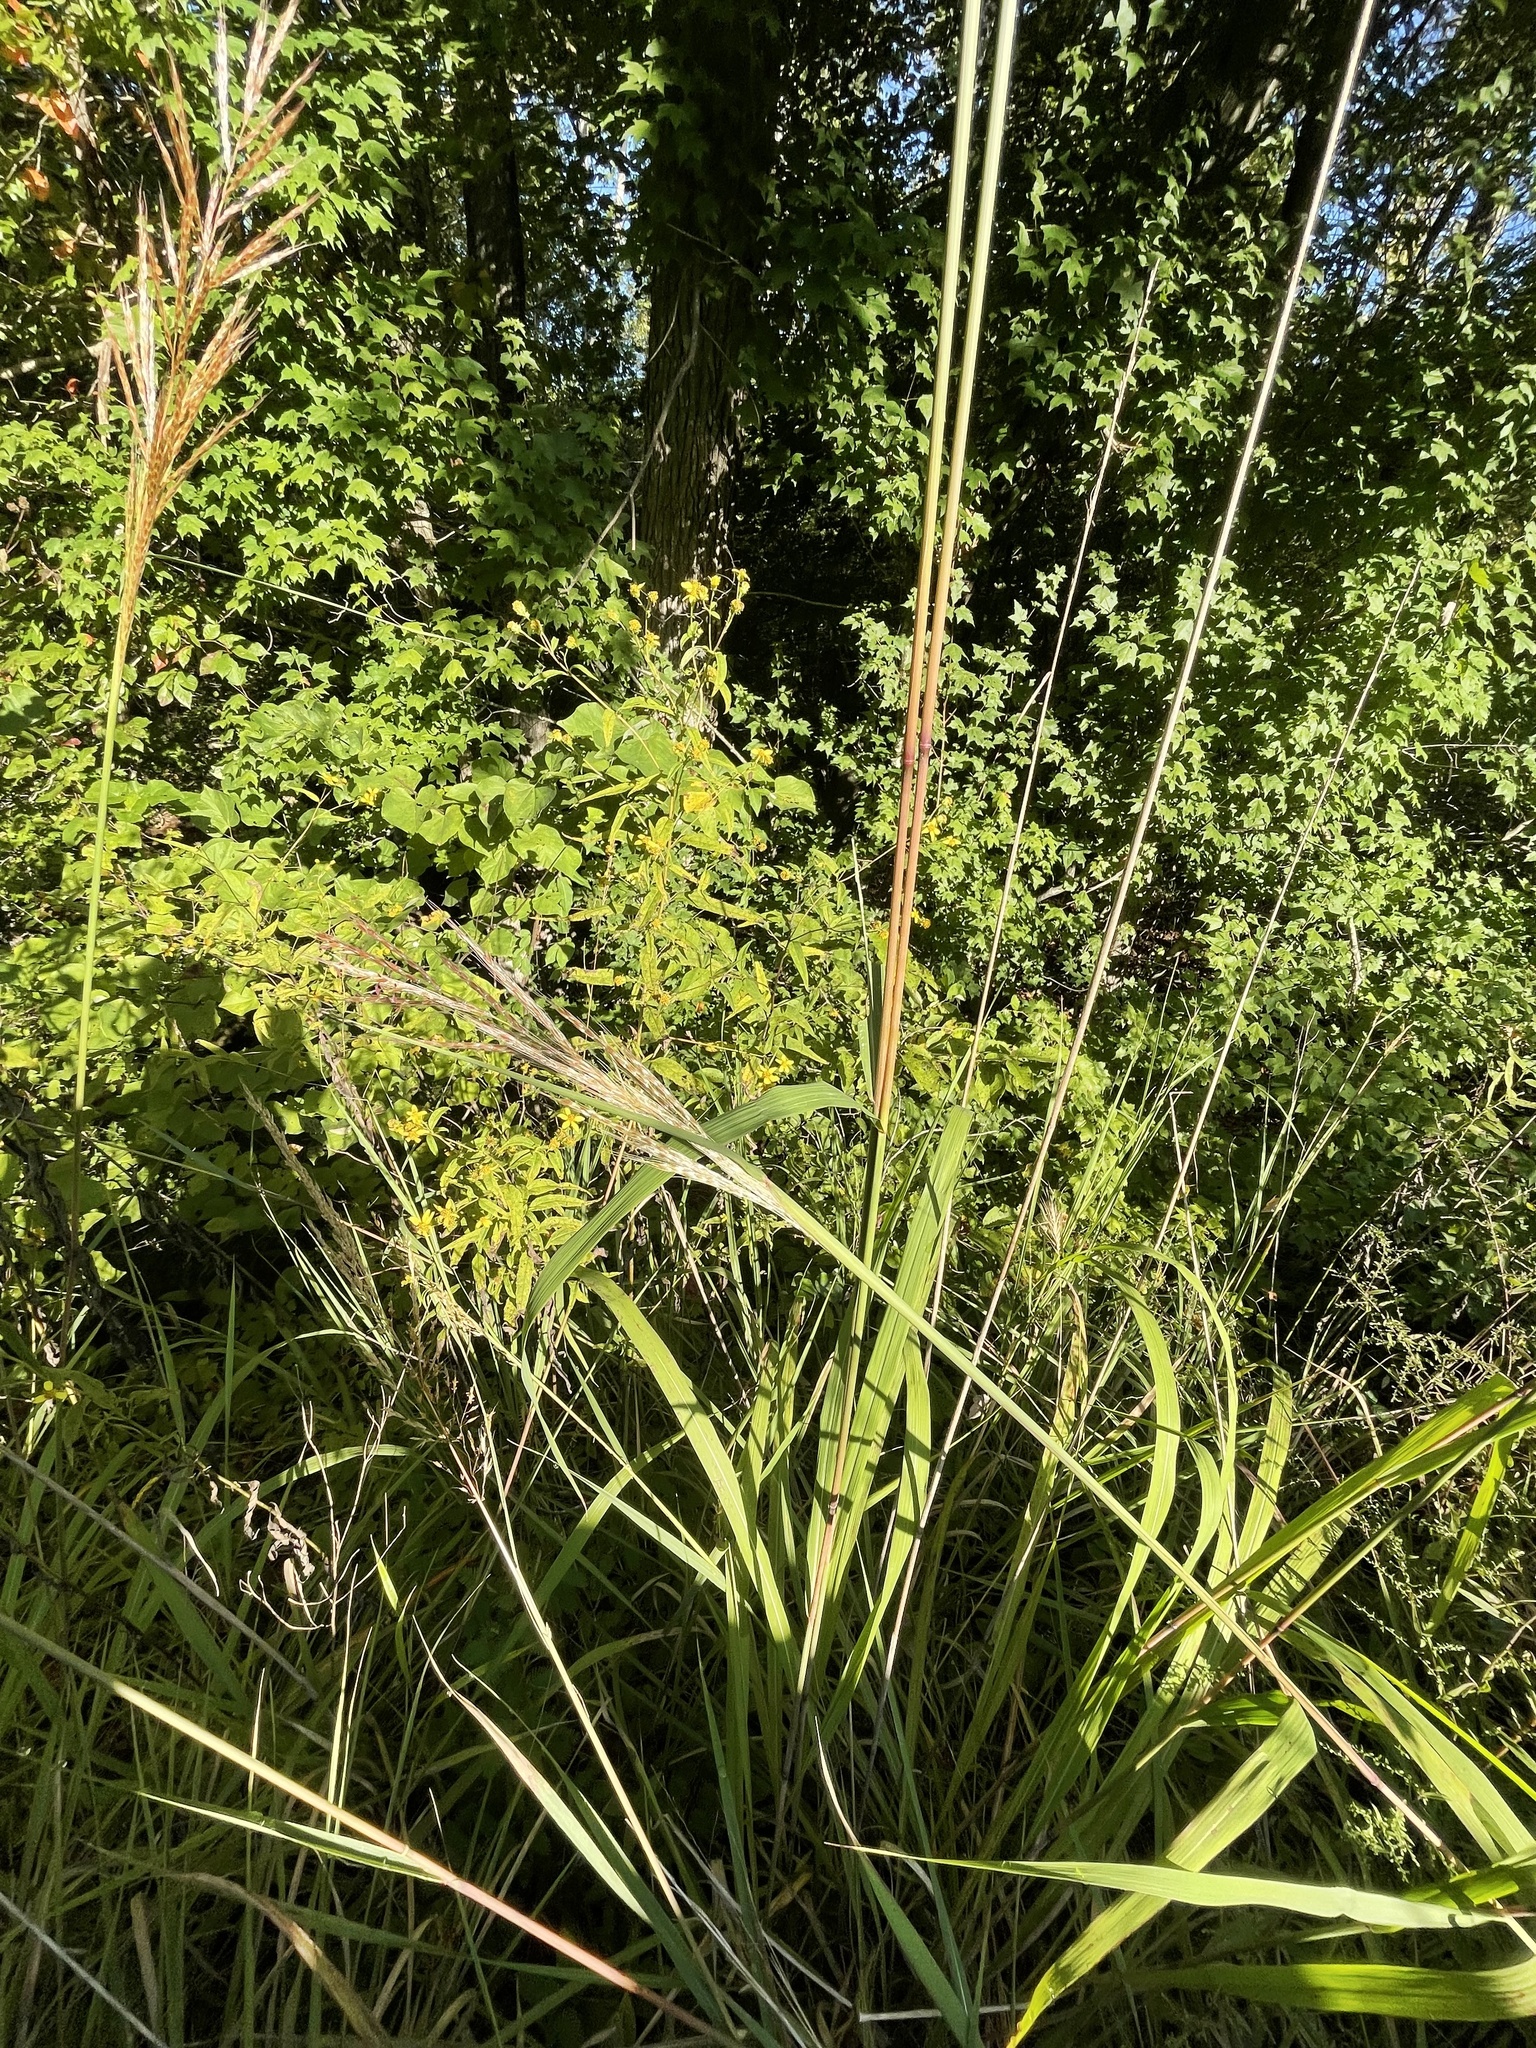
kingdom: Plantae
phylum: Tracheophyta
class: Liliopsida
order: Poales
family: Poaceae
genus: Erianthus
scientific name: Erianthus giganteus
